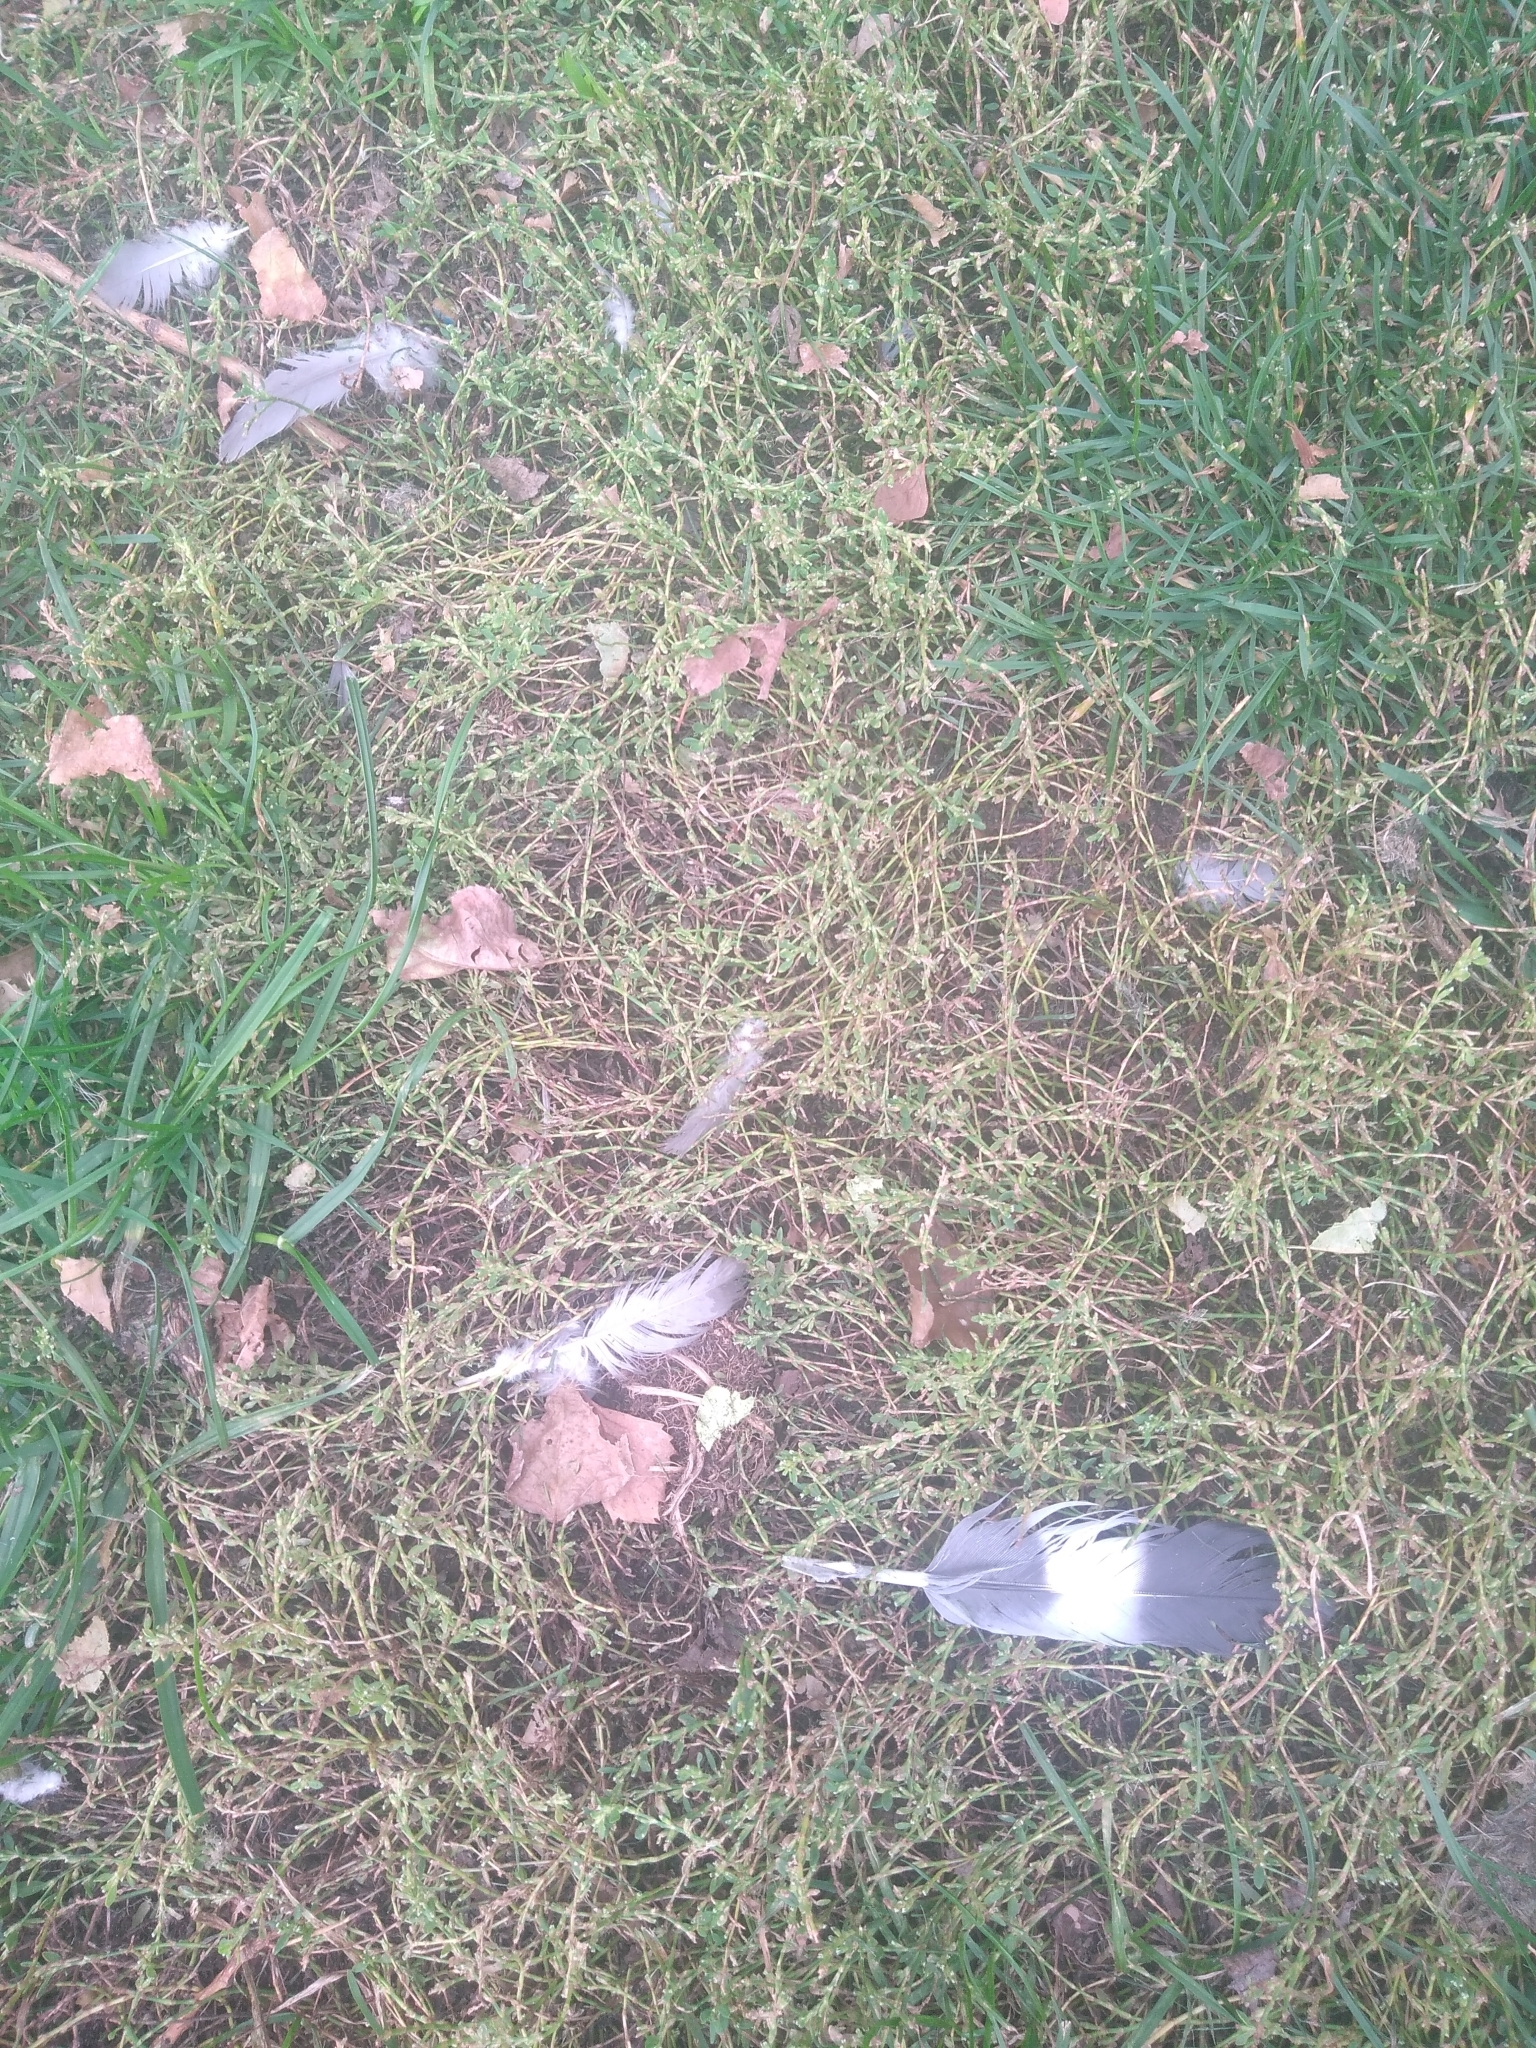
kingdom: Animalia
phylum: Chordata
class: Aves
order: Columbiformes
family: Columbidae
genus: Columba
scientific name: Columba palumbus
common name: Common wood pigeon
